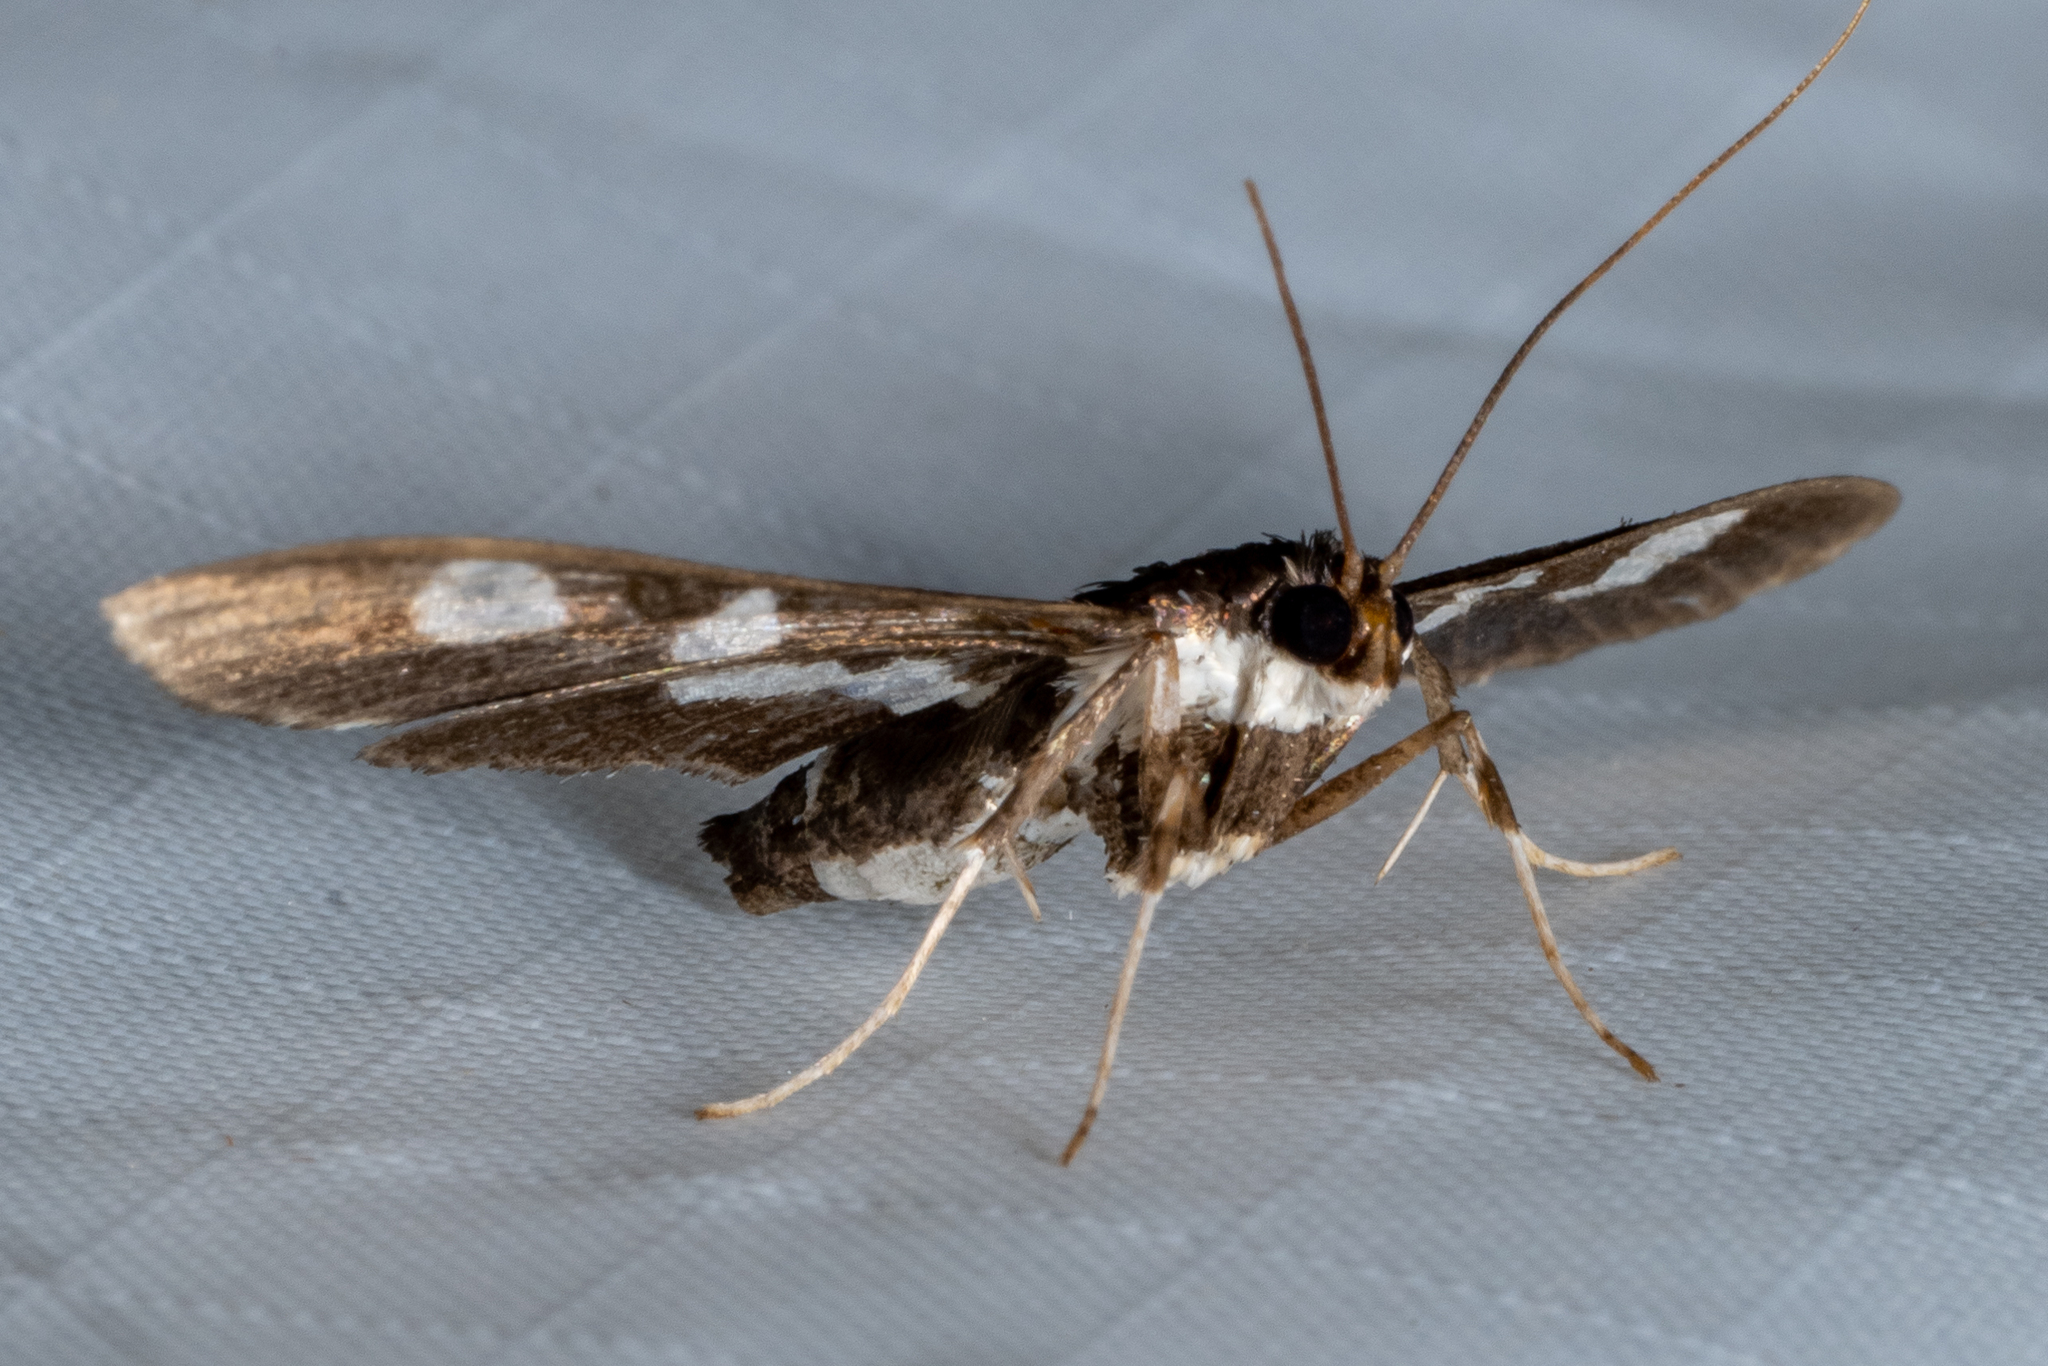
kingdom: Animalia
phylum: Arthropoda
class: Insecta
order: Lepidoptera
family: Crambidae
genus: Desmia
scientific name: Desmia funeralis
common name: Grape leaf folder moth
